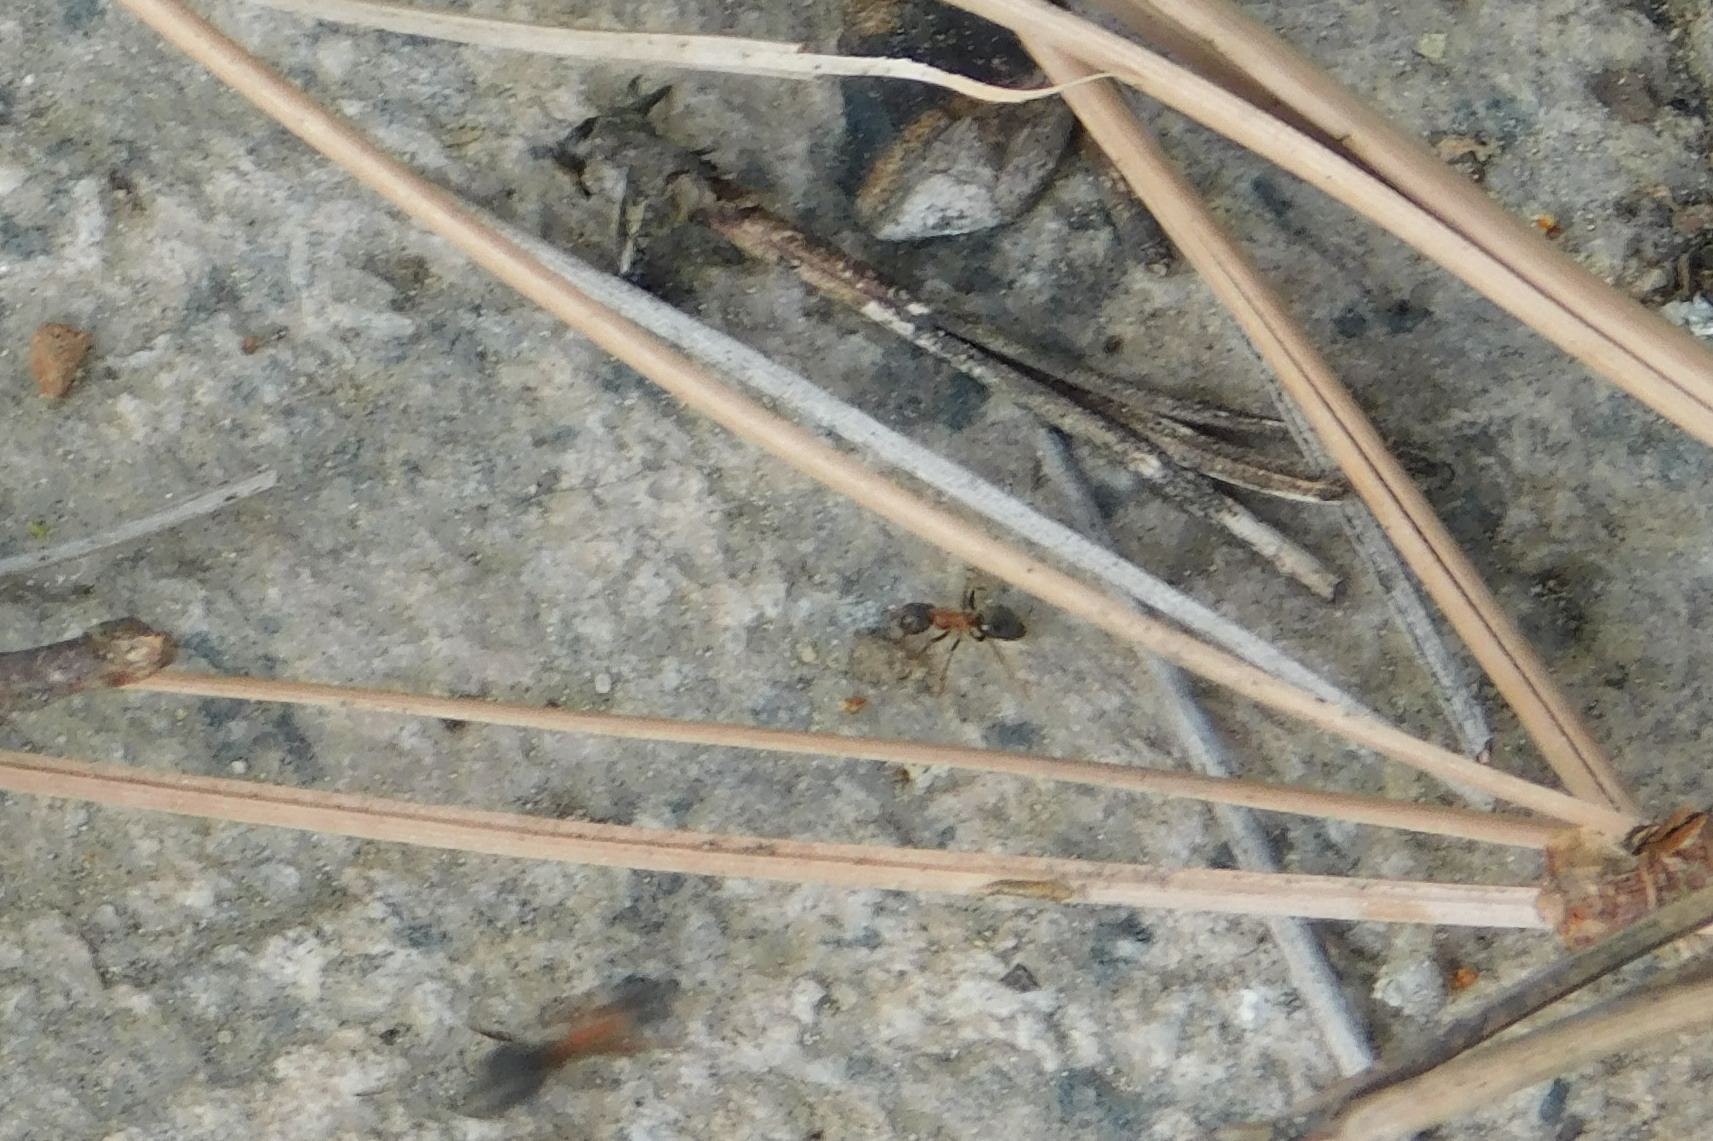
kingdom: Animalia
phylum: Arthropoda
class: Insecta
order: Hymenoptera
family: Formicidae
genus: Lasius
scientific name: Lasius emarginatus
